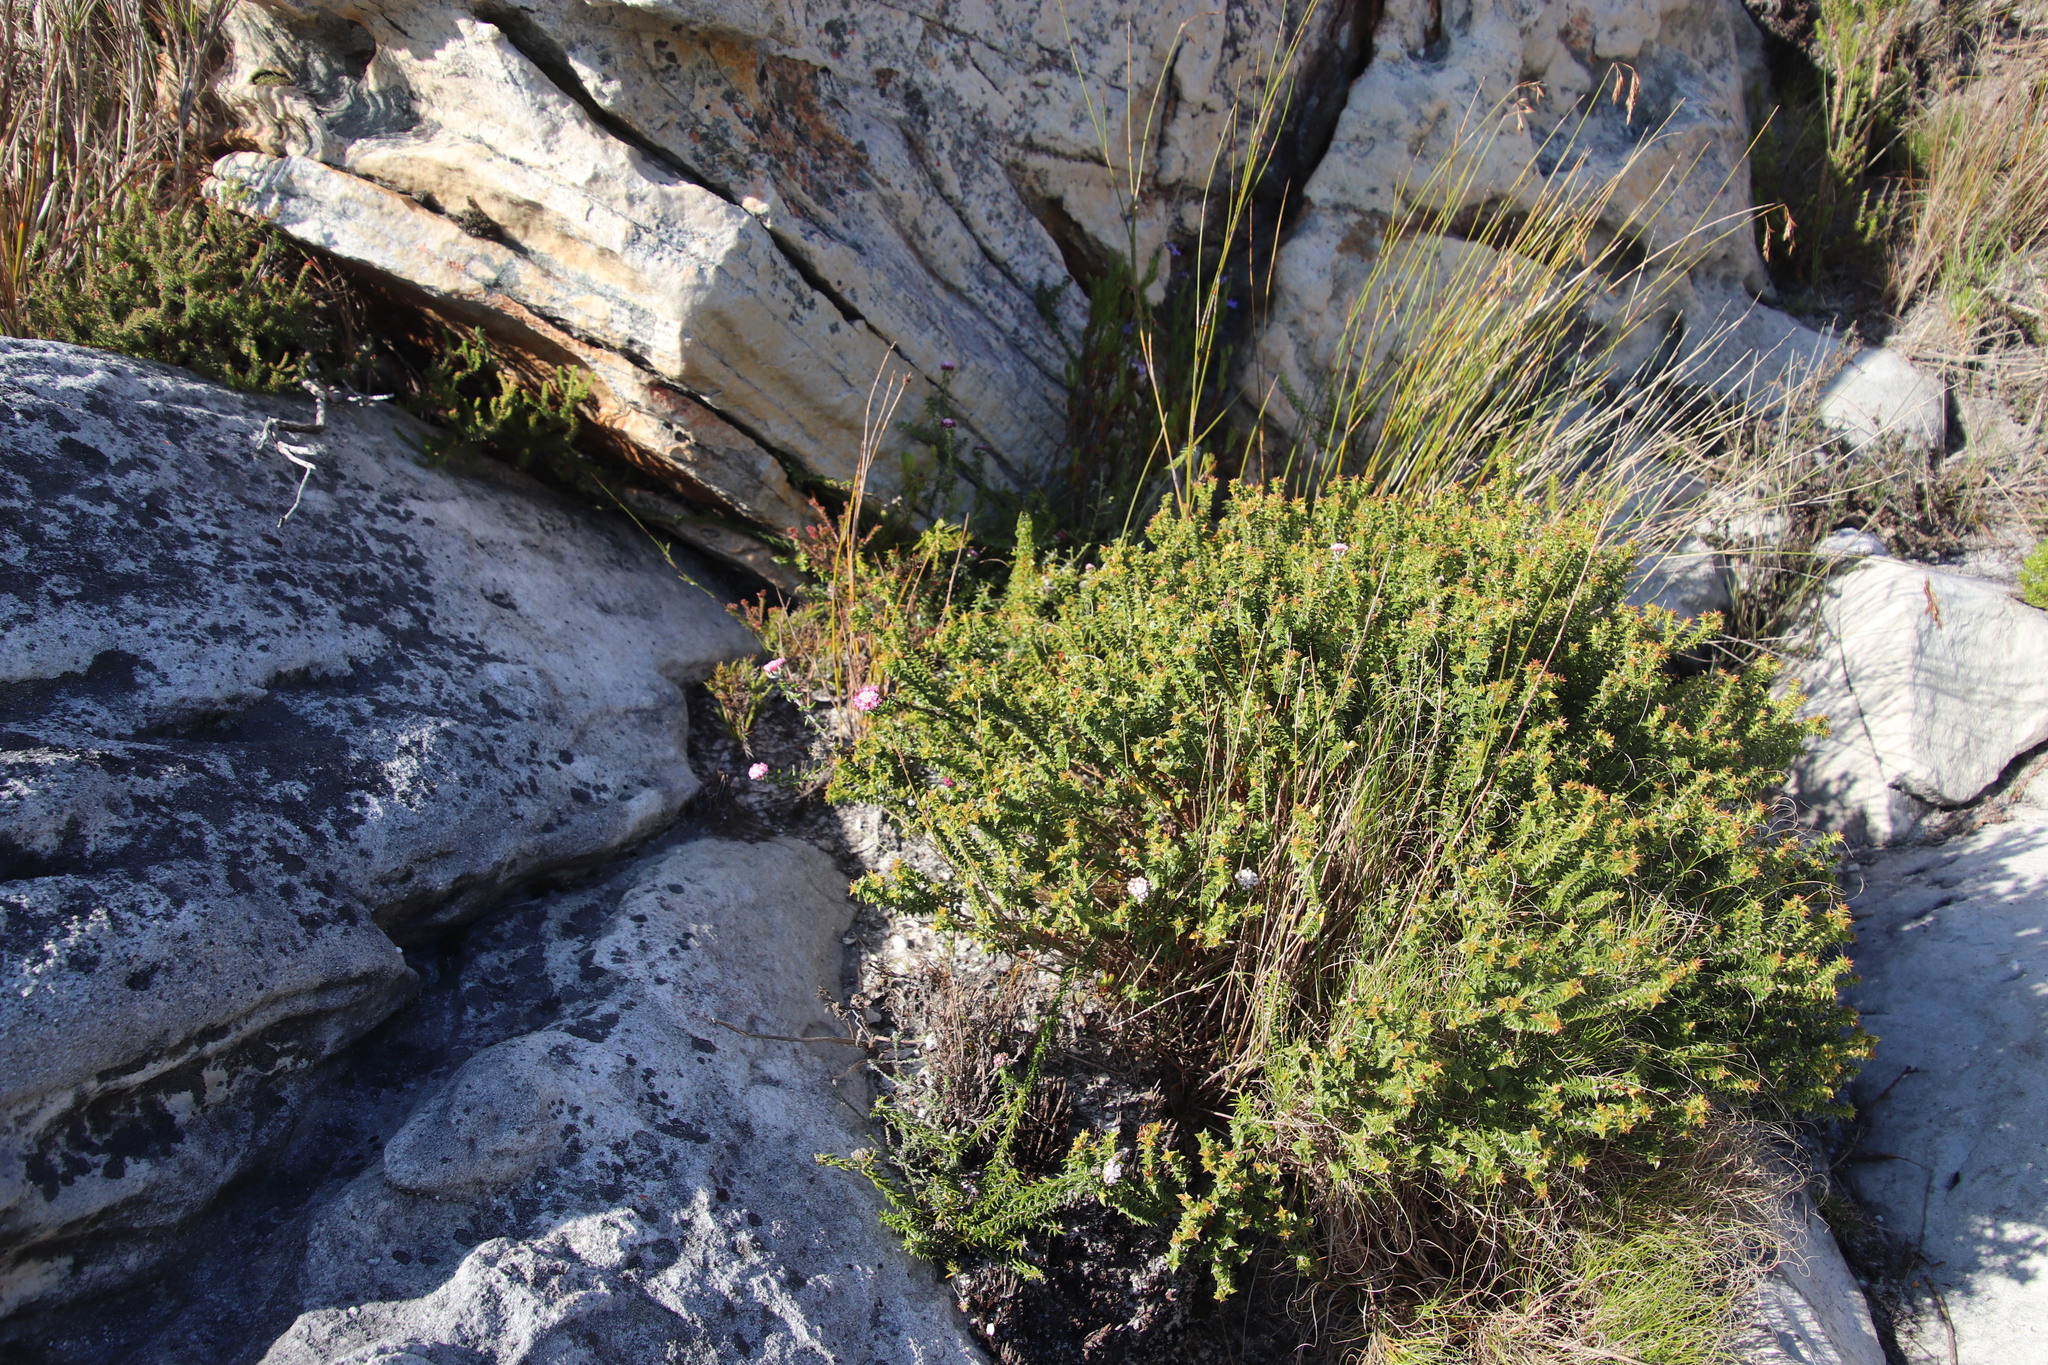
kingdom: Plantae
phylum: Tracheophyta
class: Magnoliopsida
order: Myrtales
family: Penaeaceae
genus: Penaea
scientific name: Penaea mucronata
